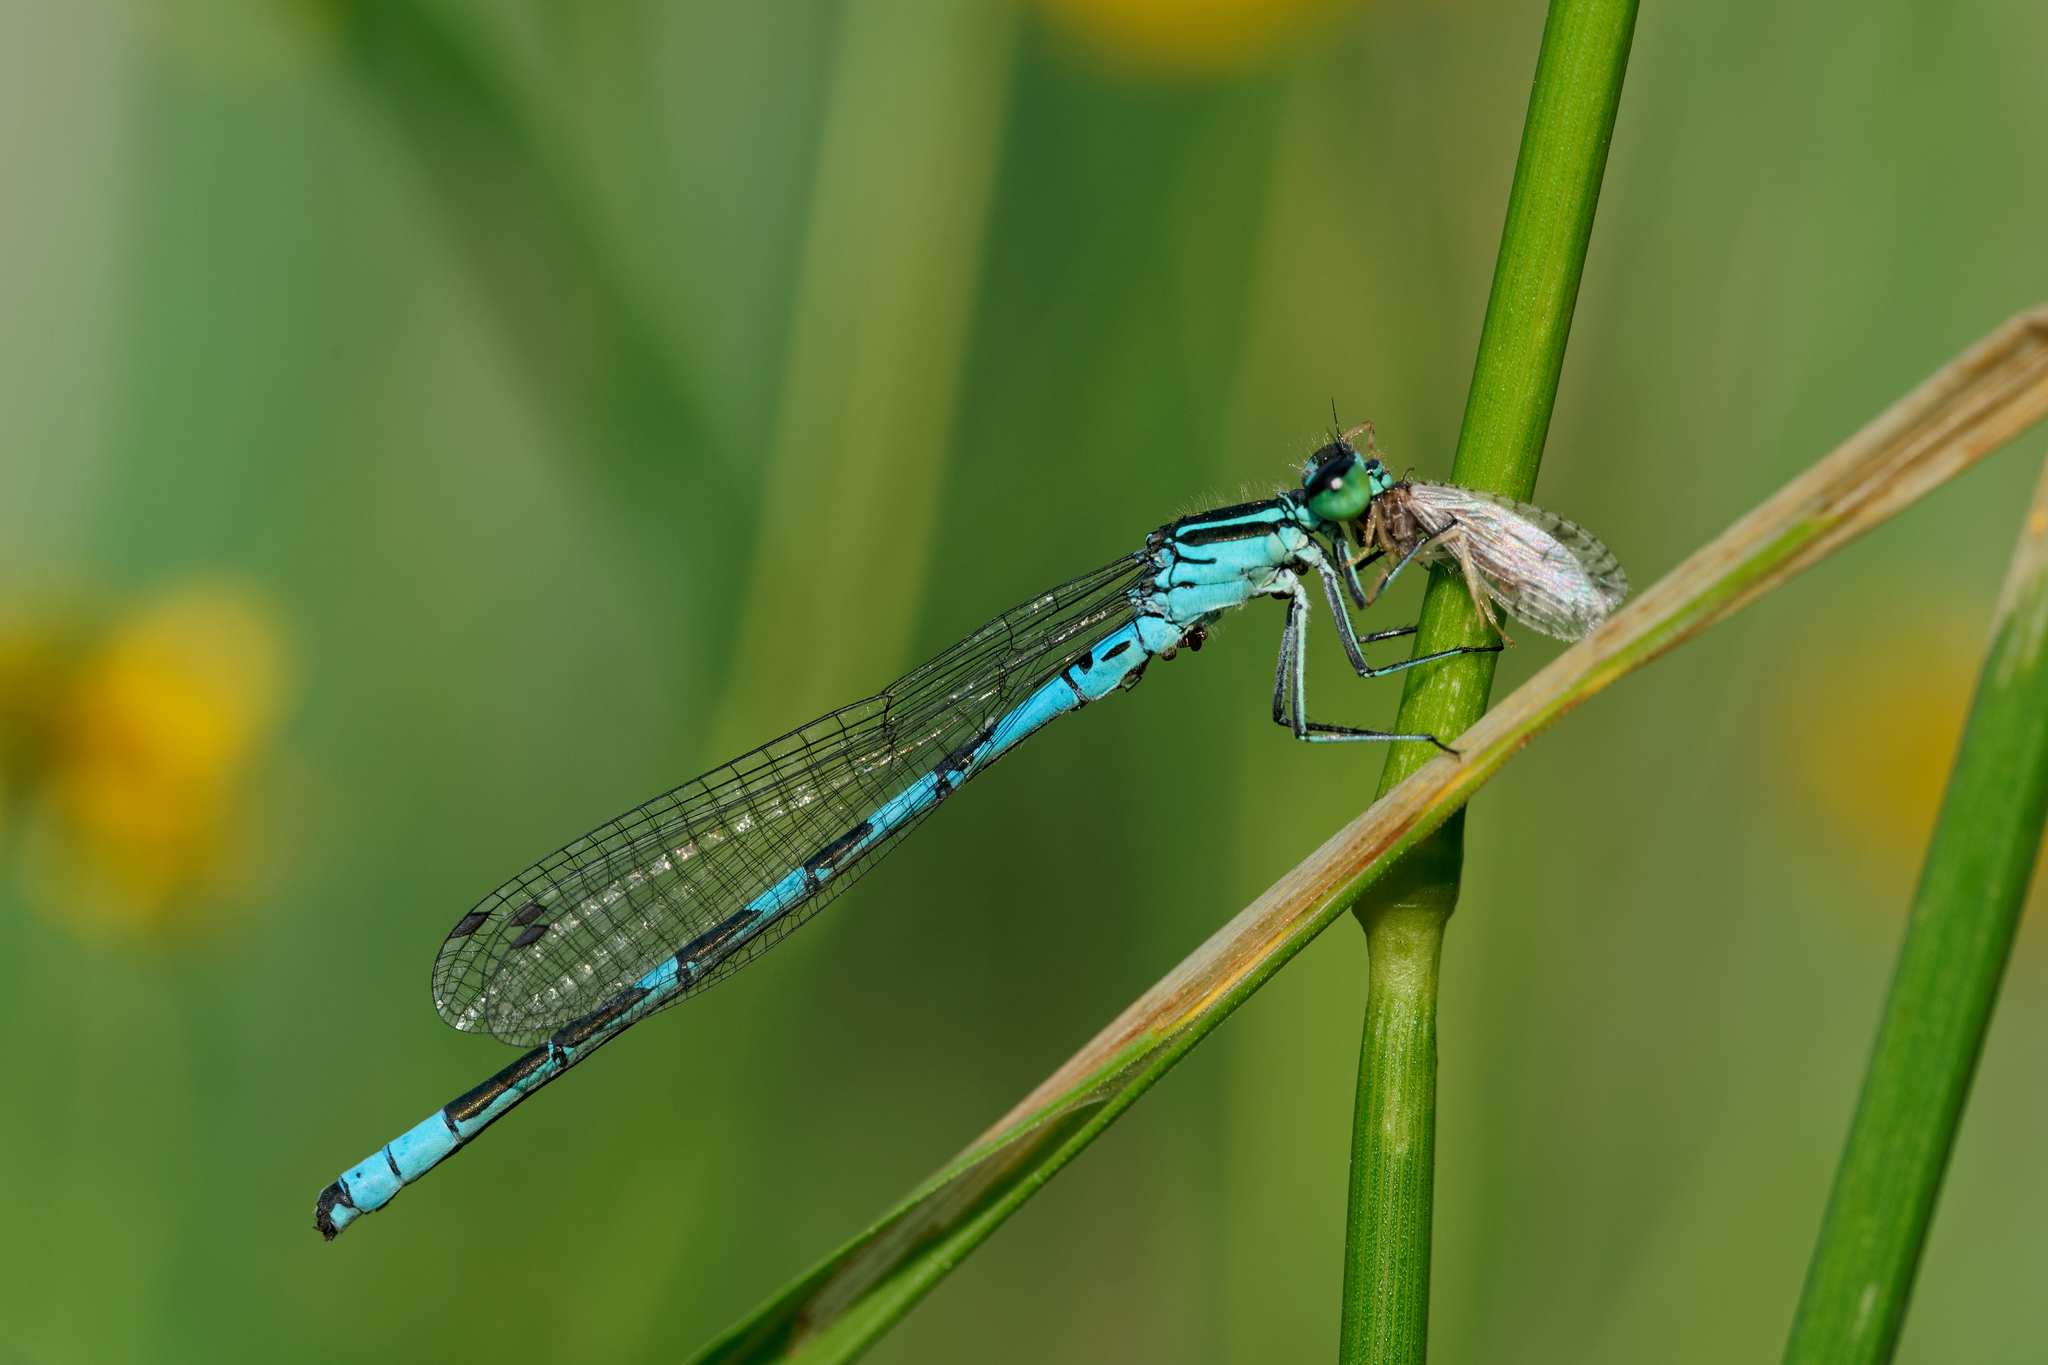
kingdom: Animalia
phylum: Arthropoda
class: Insecta
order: Odonata
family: Coenagrionidae
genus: Coenagrion
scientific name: Coenagrion hastulatum
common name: Spearhead bluet
